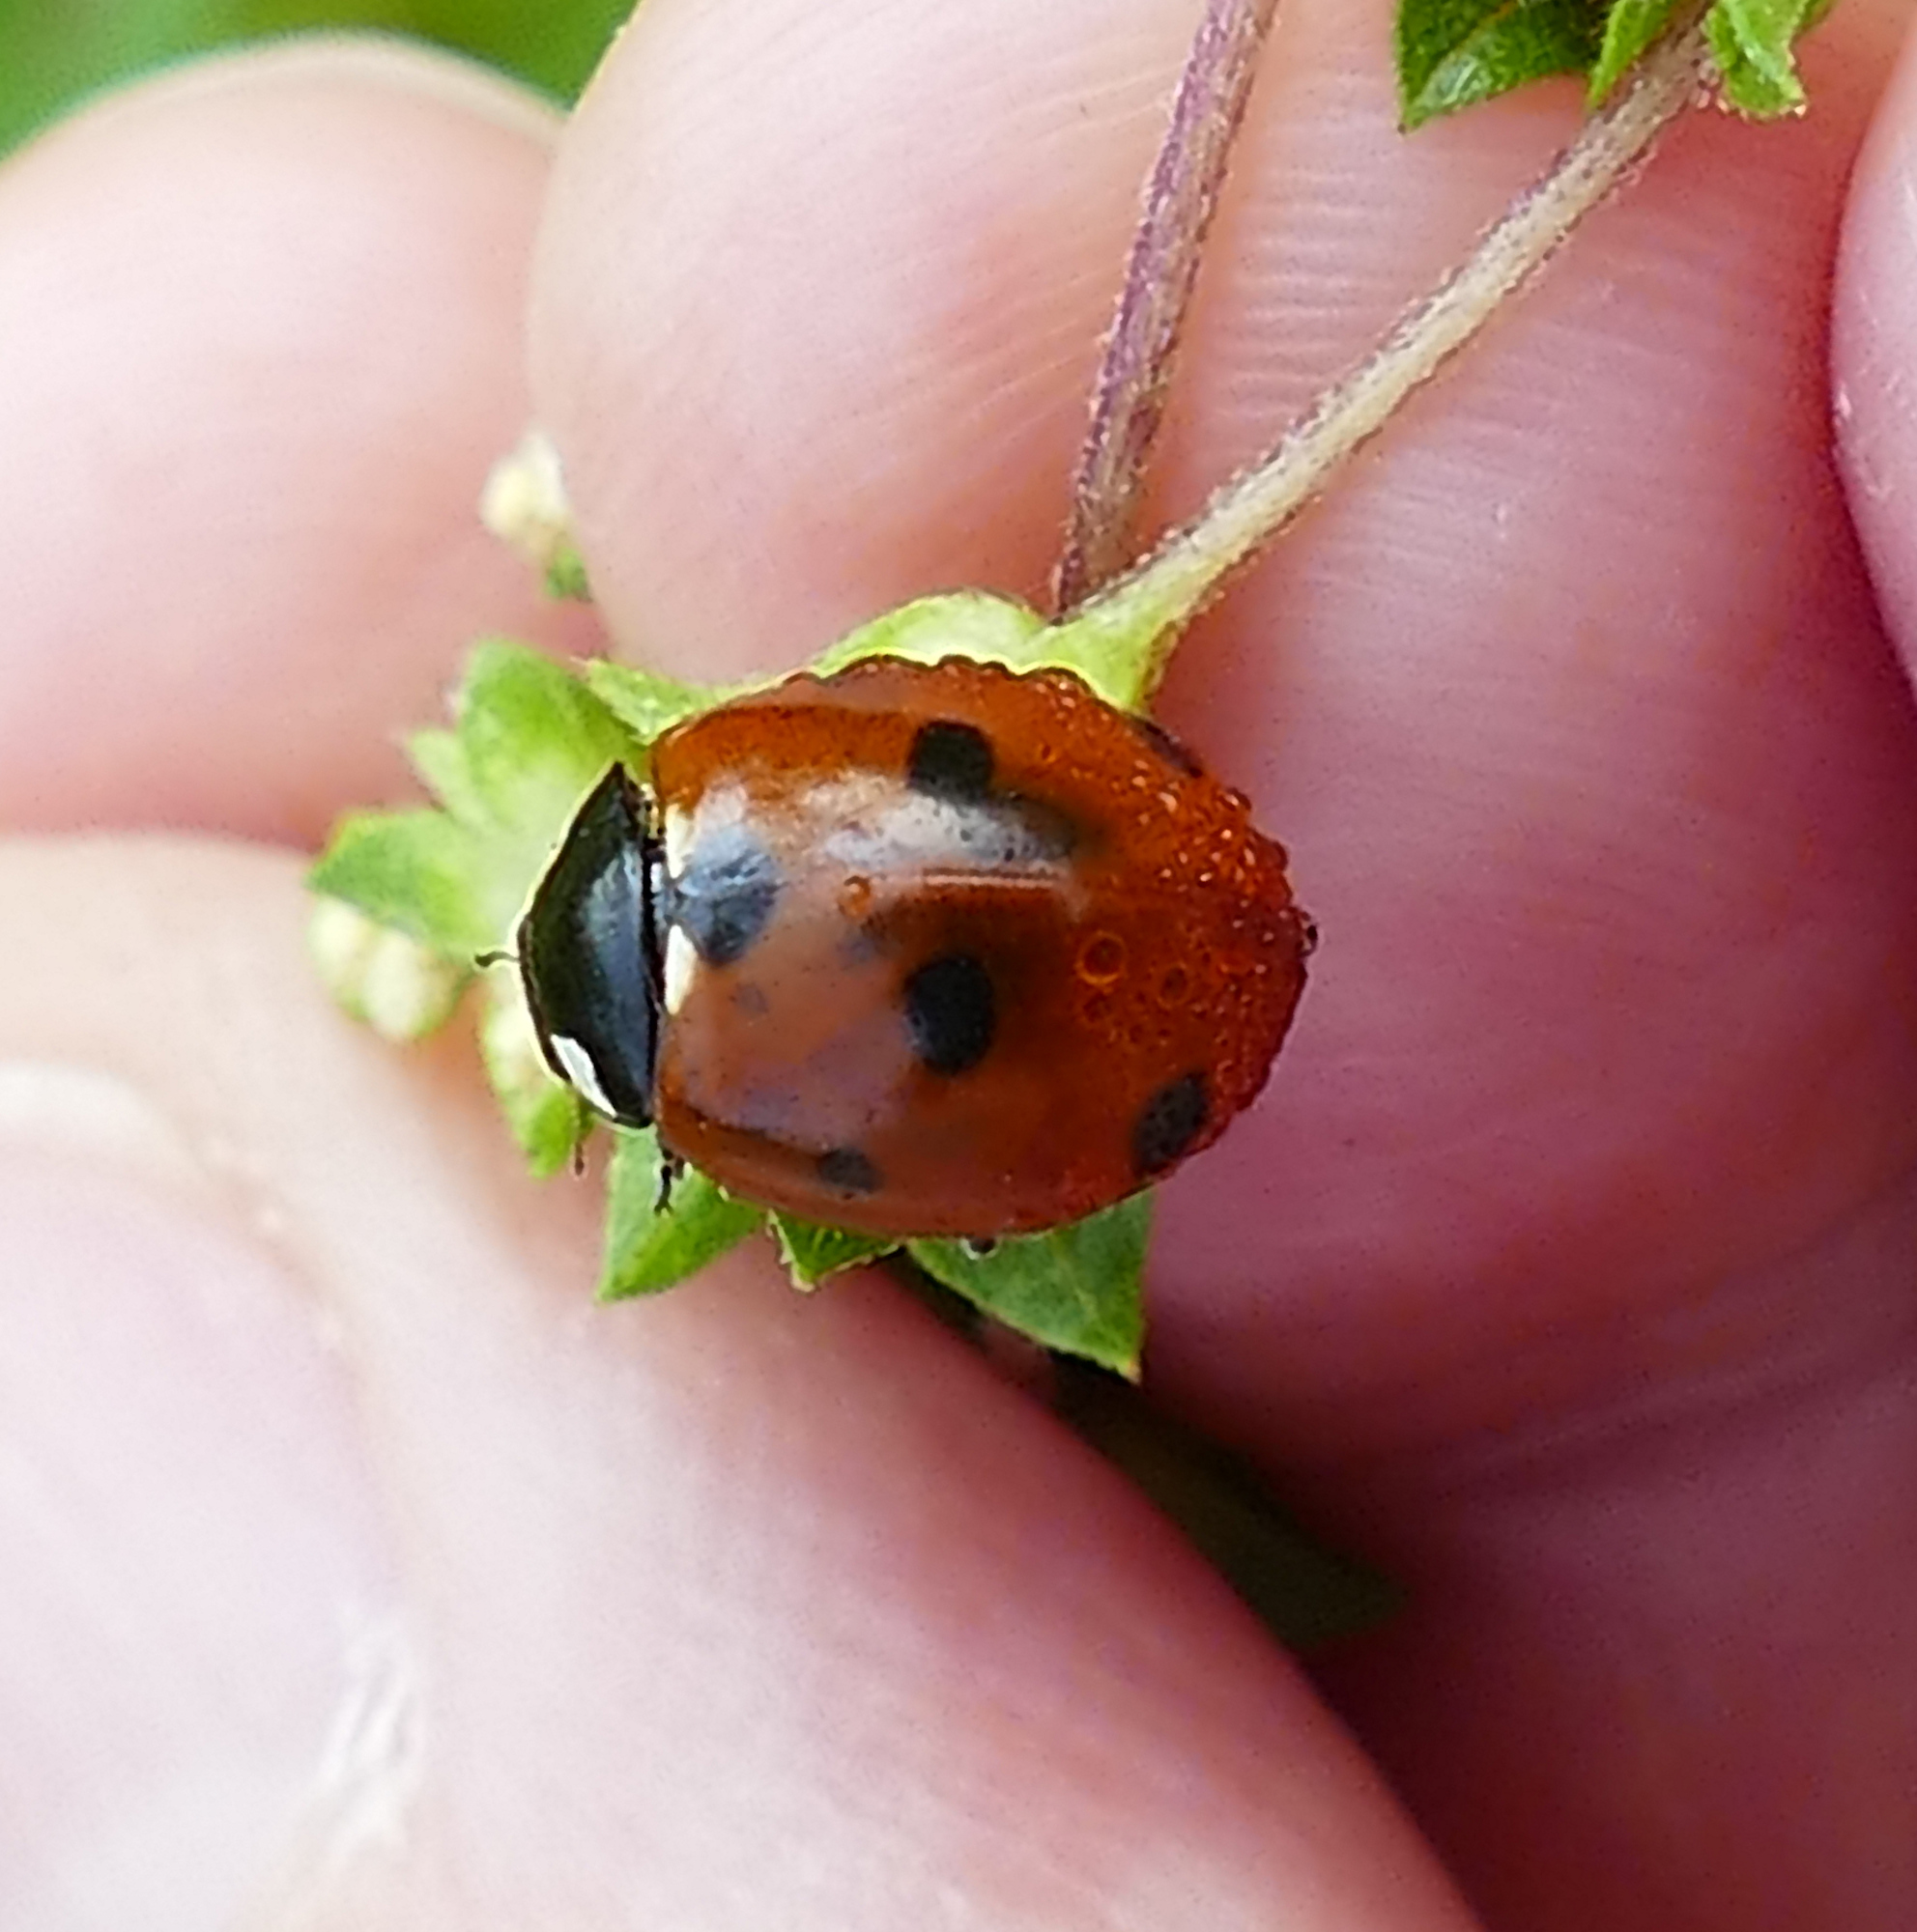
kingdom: Animalia
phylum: Arthropoda
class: Insecta
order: Coleoptera
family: Coccinellidae
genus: Coccinella
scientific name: Coccinella septempunctata
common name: Sevenspotted lady beetle
